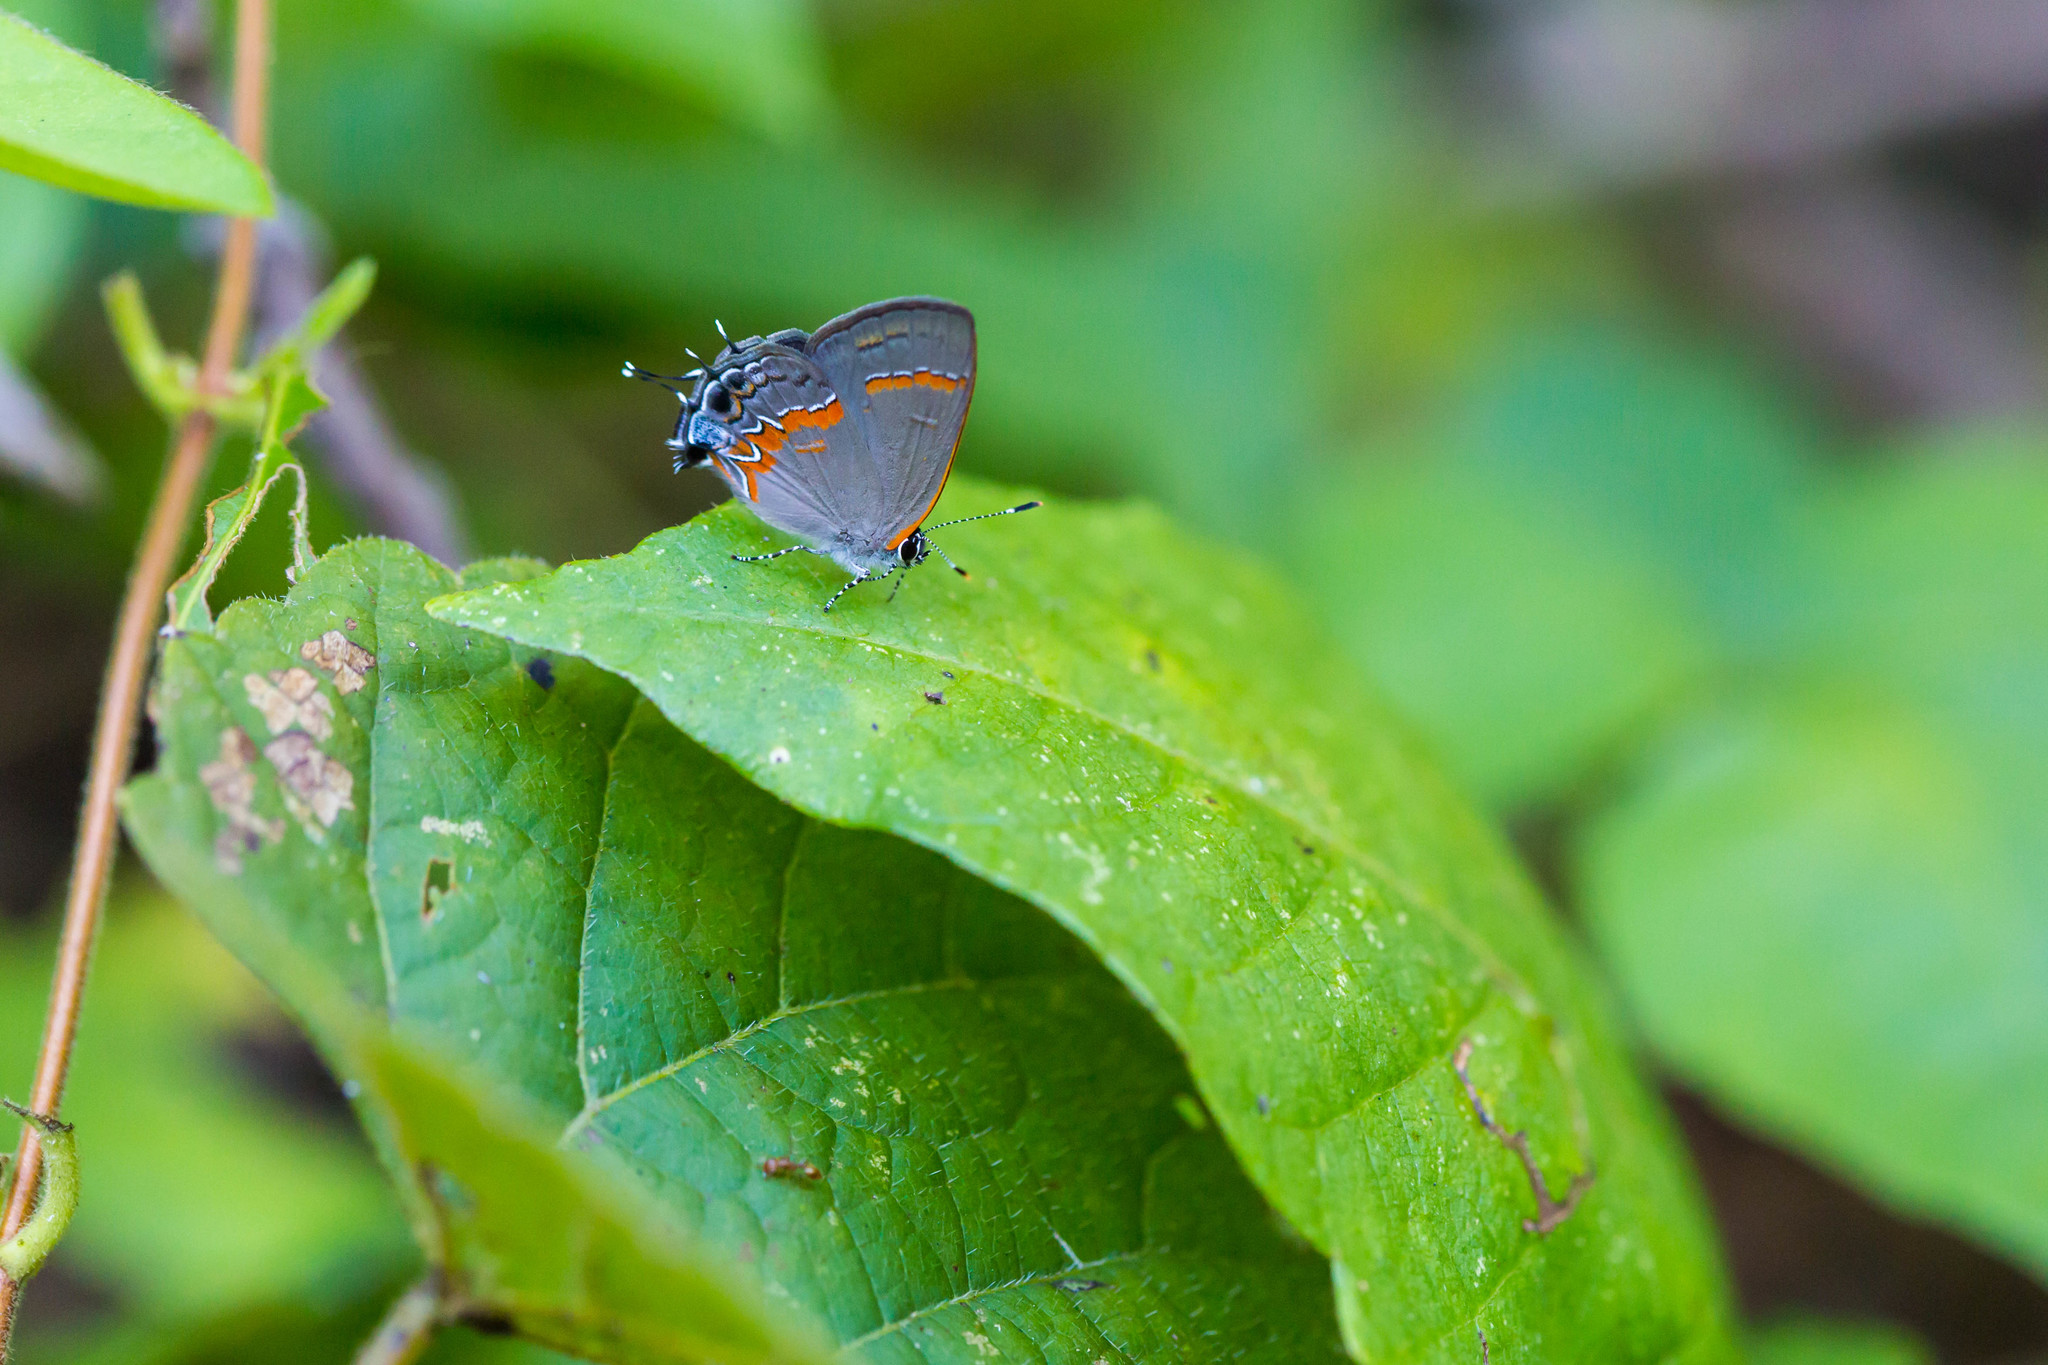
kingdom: Animalia
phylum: Arthropoda
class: Insecta
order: Lepidoptera
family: Lycaenidae
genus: Calycopis
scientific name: Calycopis cecrops
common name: Red-banded hairstreak
